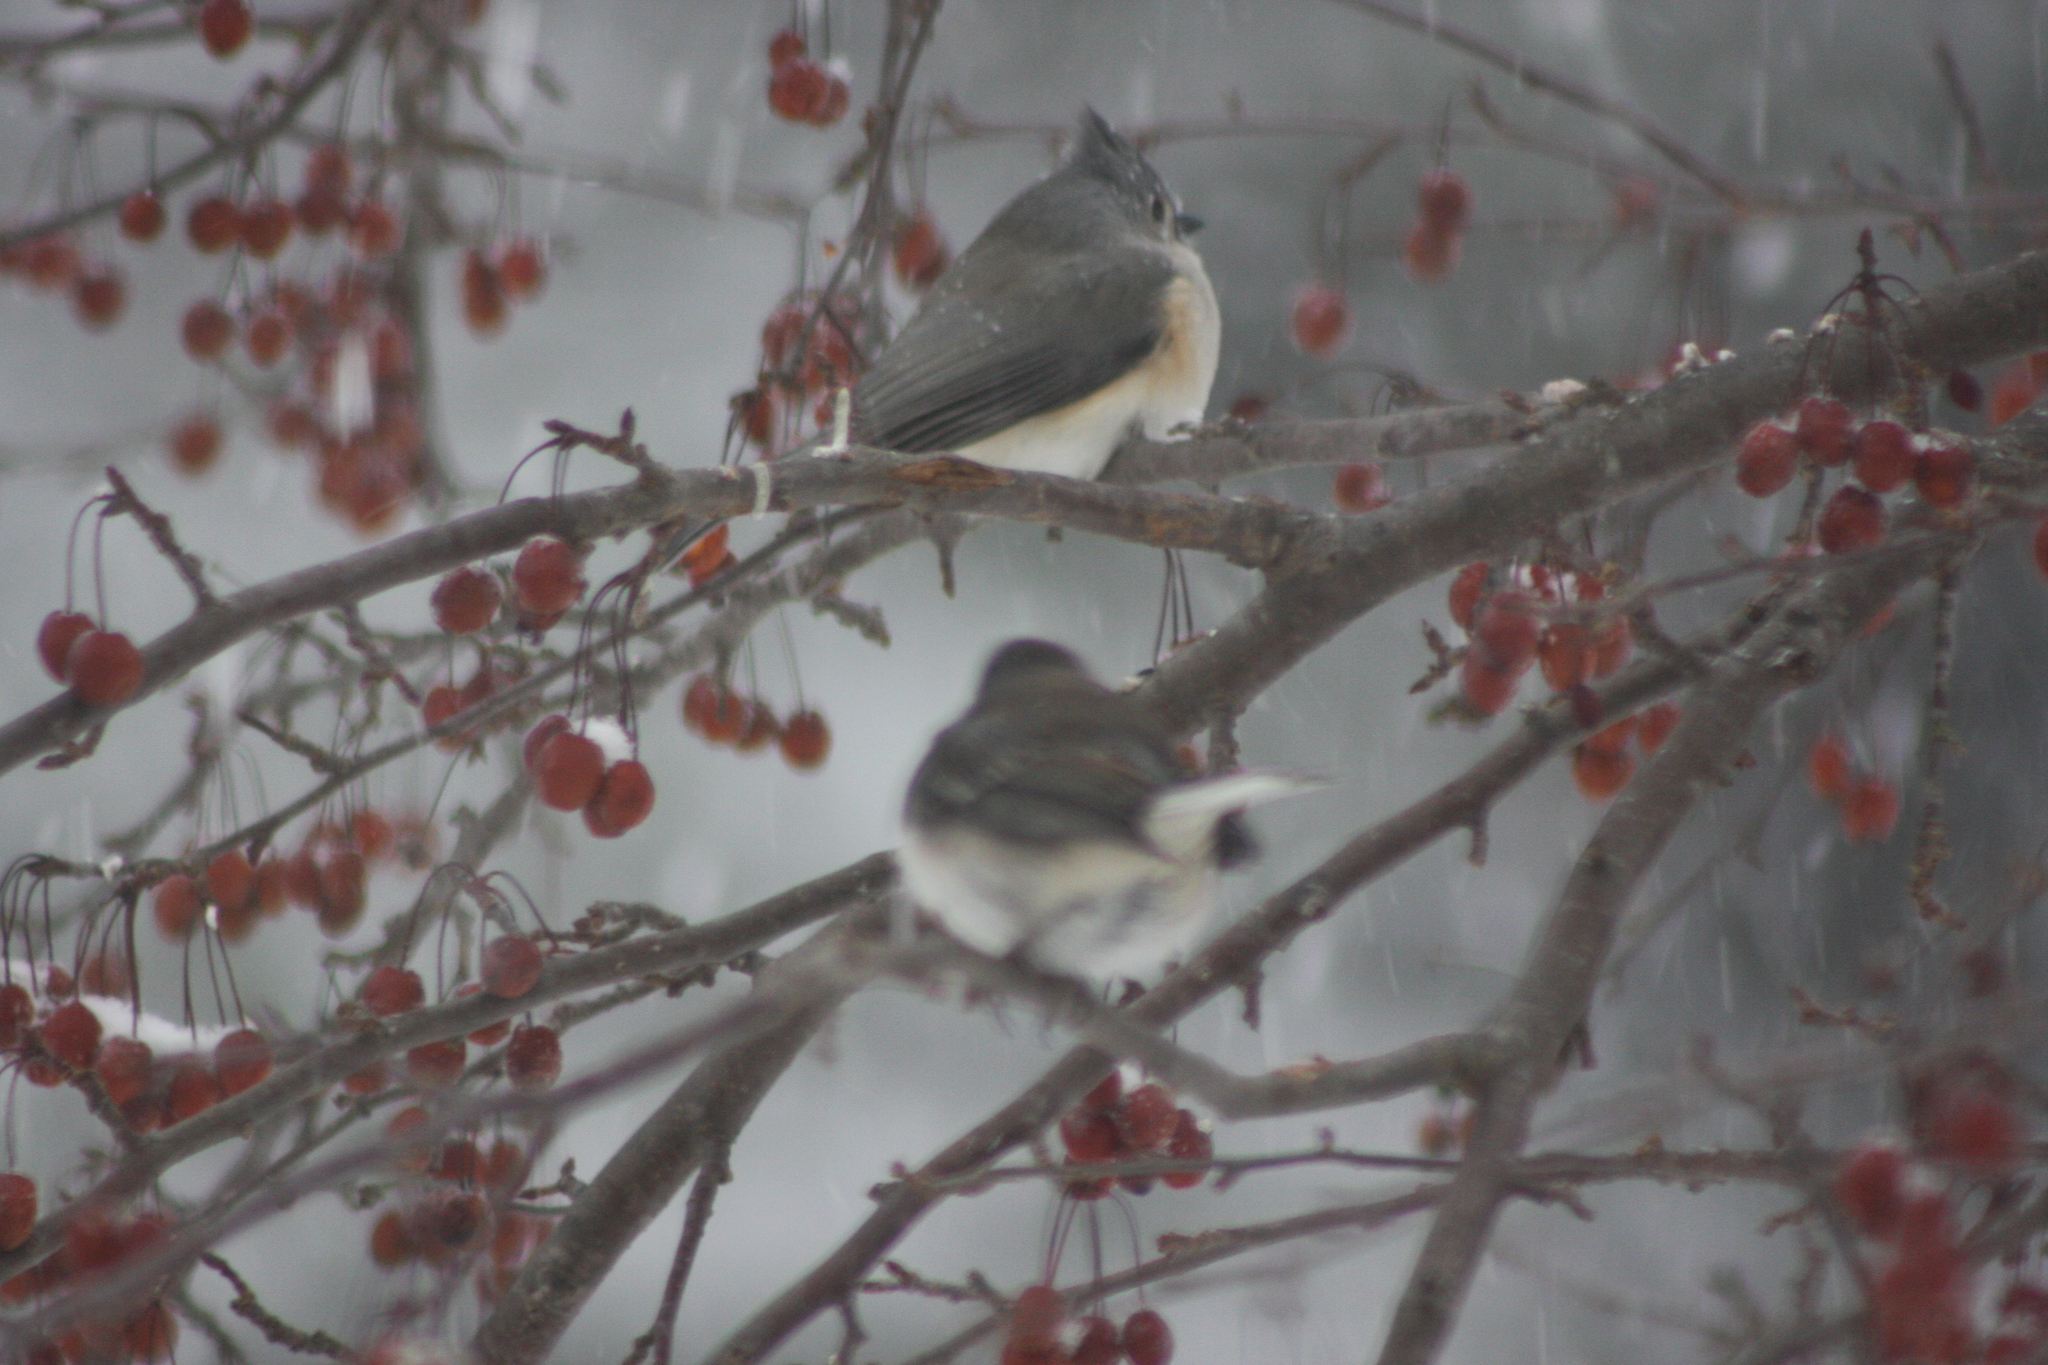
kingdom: Animalia
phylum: Chordata
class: Aves
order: Passeriformes
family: Paridae
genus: Baeolophus
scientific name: Baeolophus bicolor
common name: Tufted titmouse
